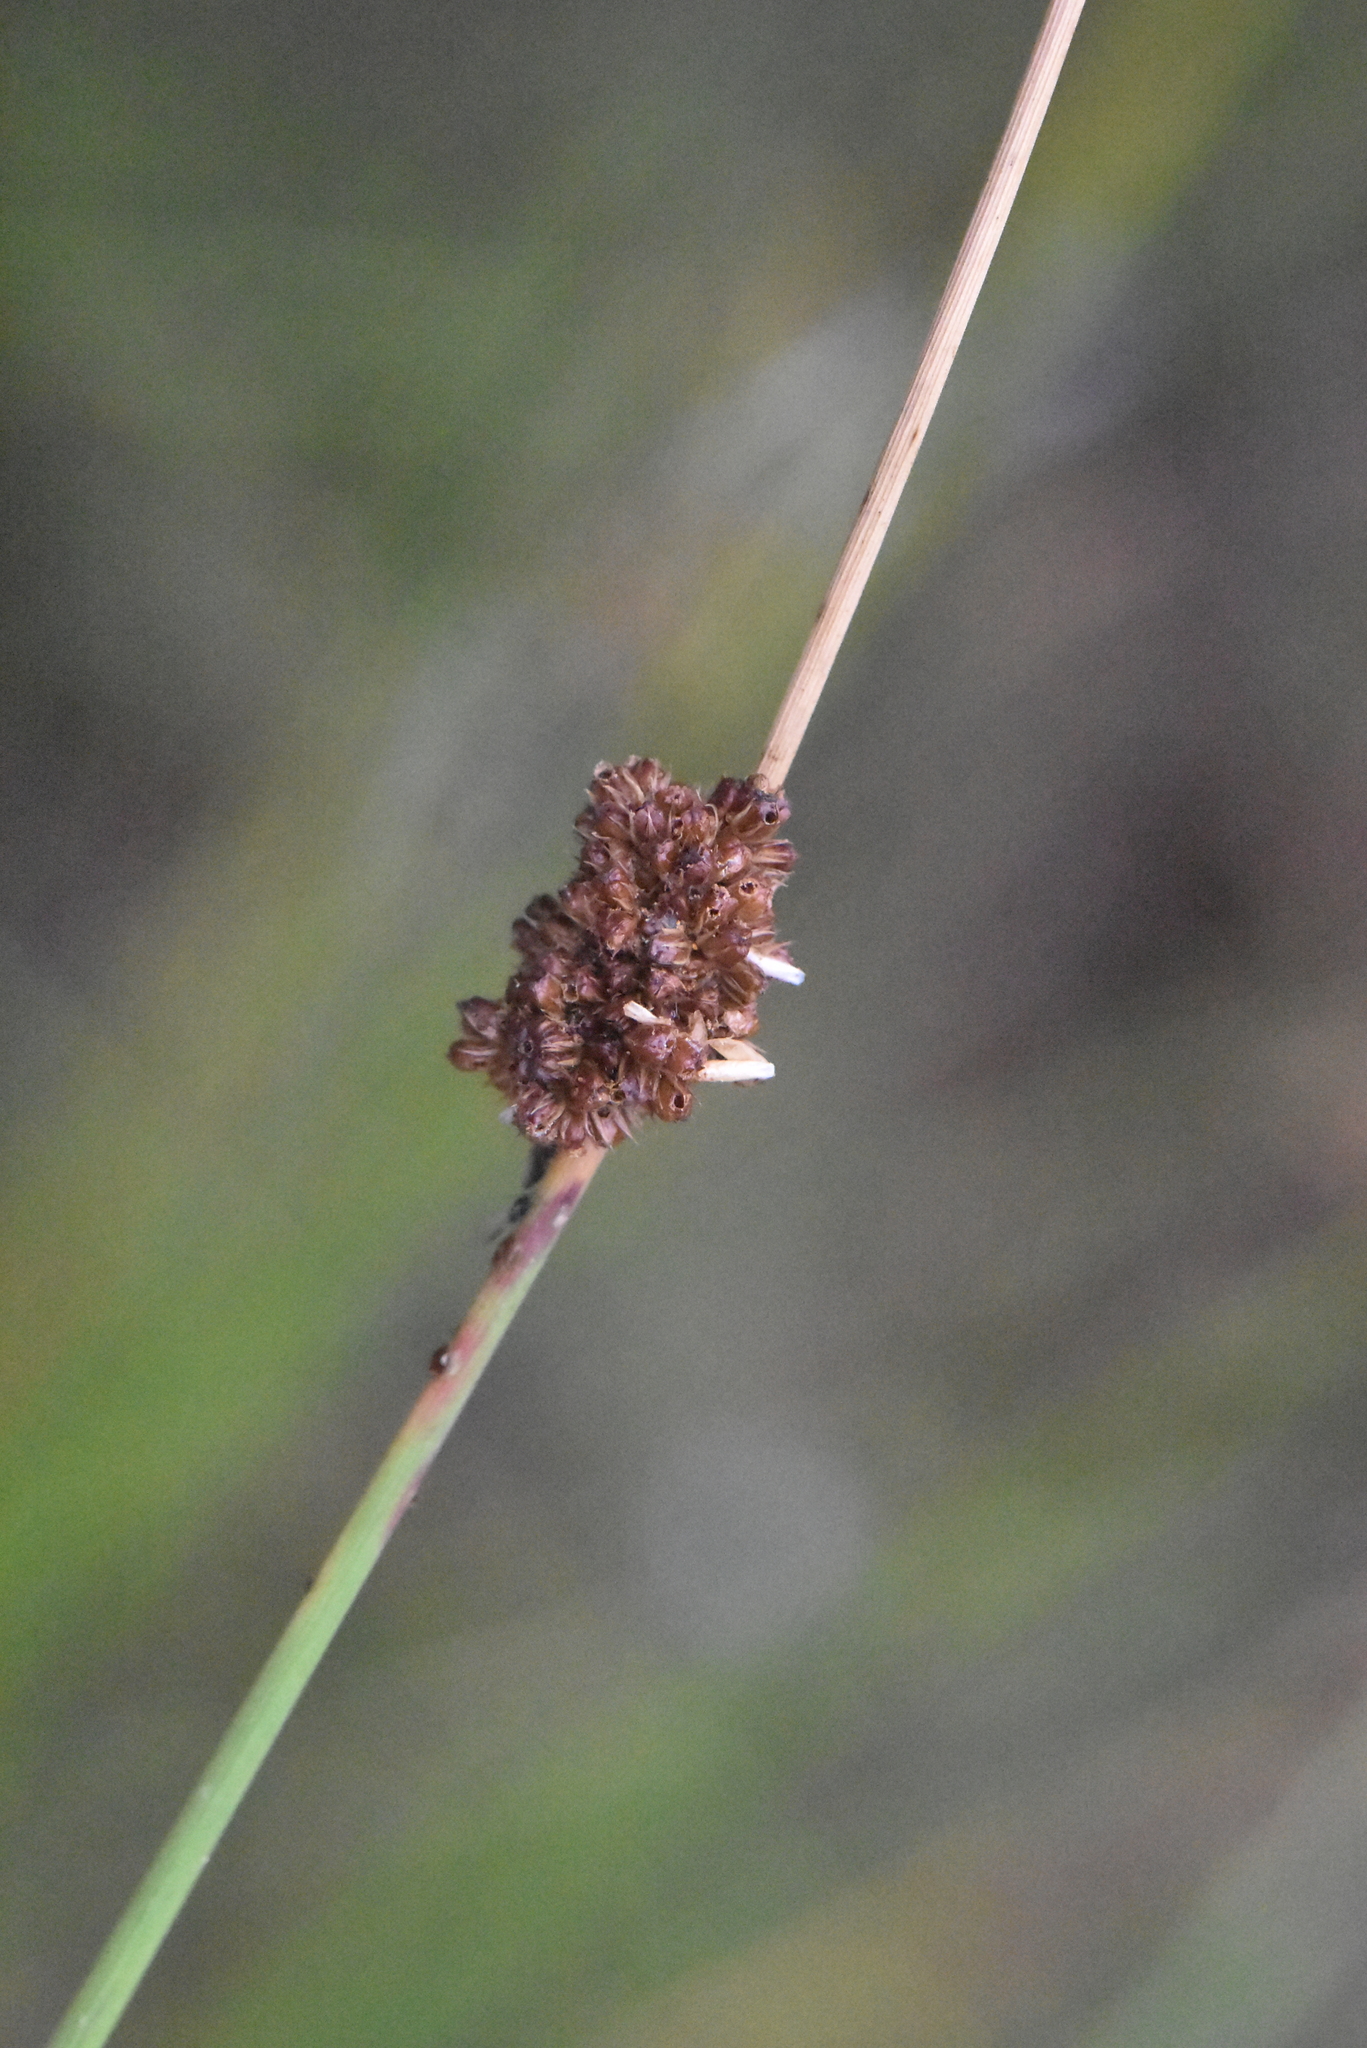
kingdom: Plantae
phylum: Tracheophyta
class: Liliopsida
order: Poales
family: Juncaceae
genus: Juncus
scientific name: Juncus conglomeratus
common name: Compact rush
